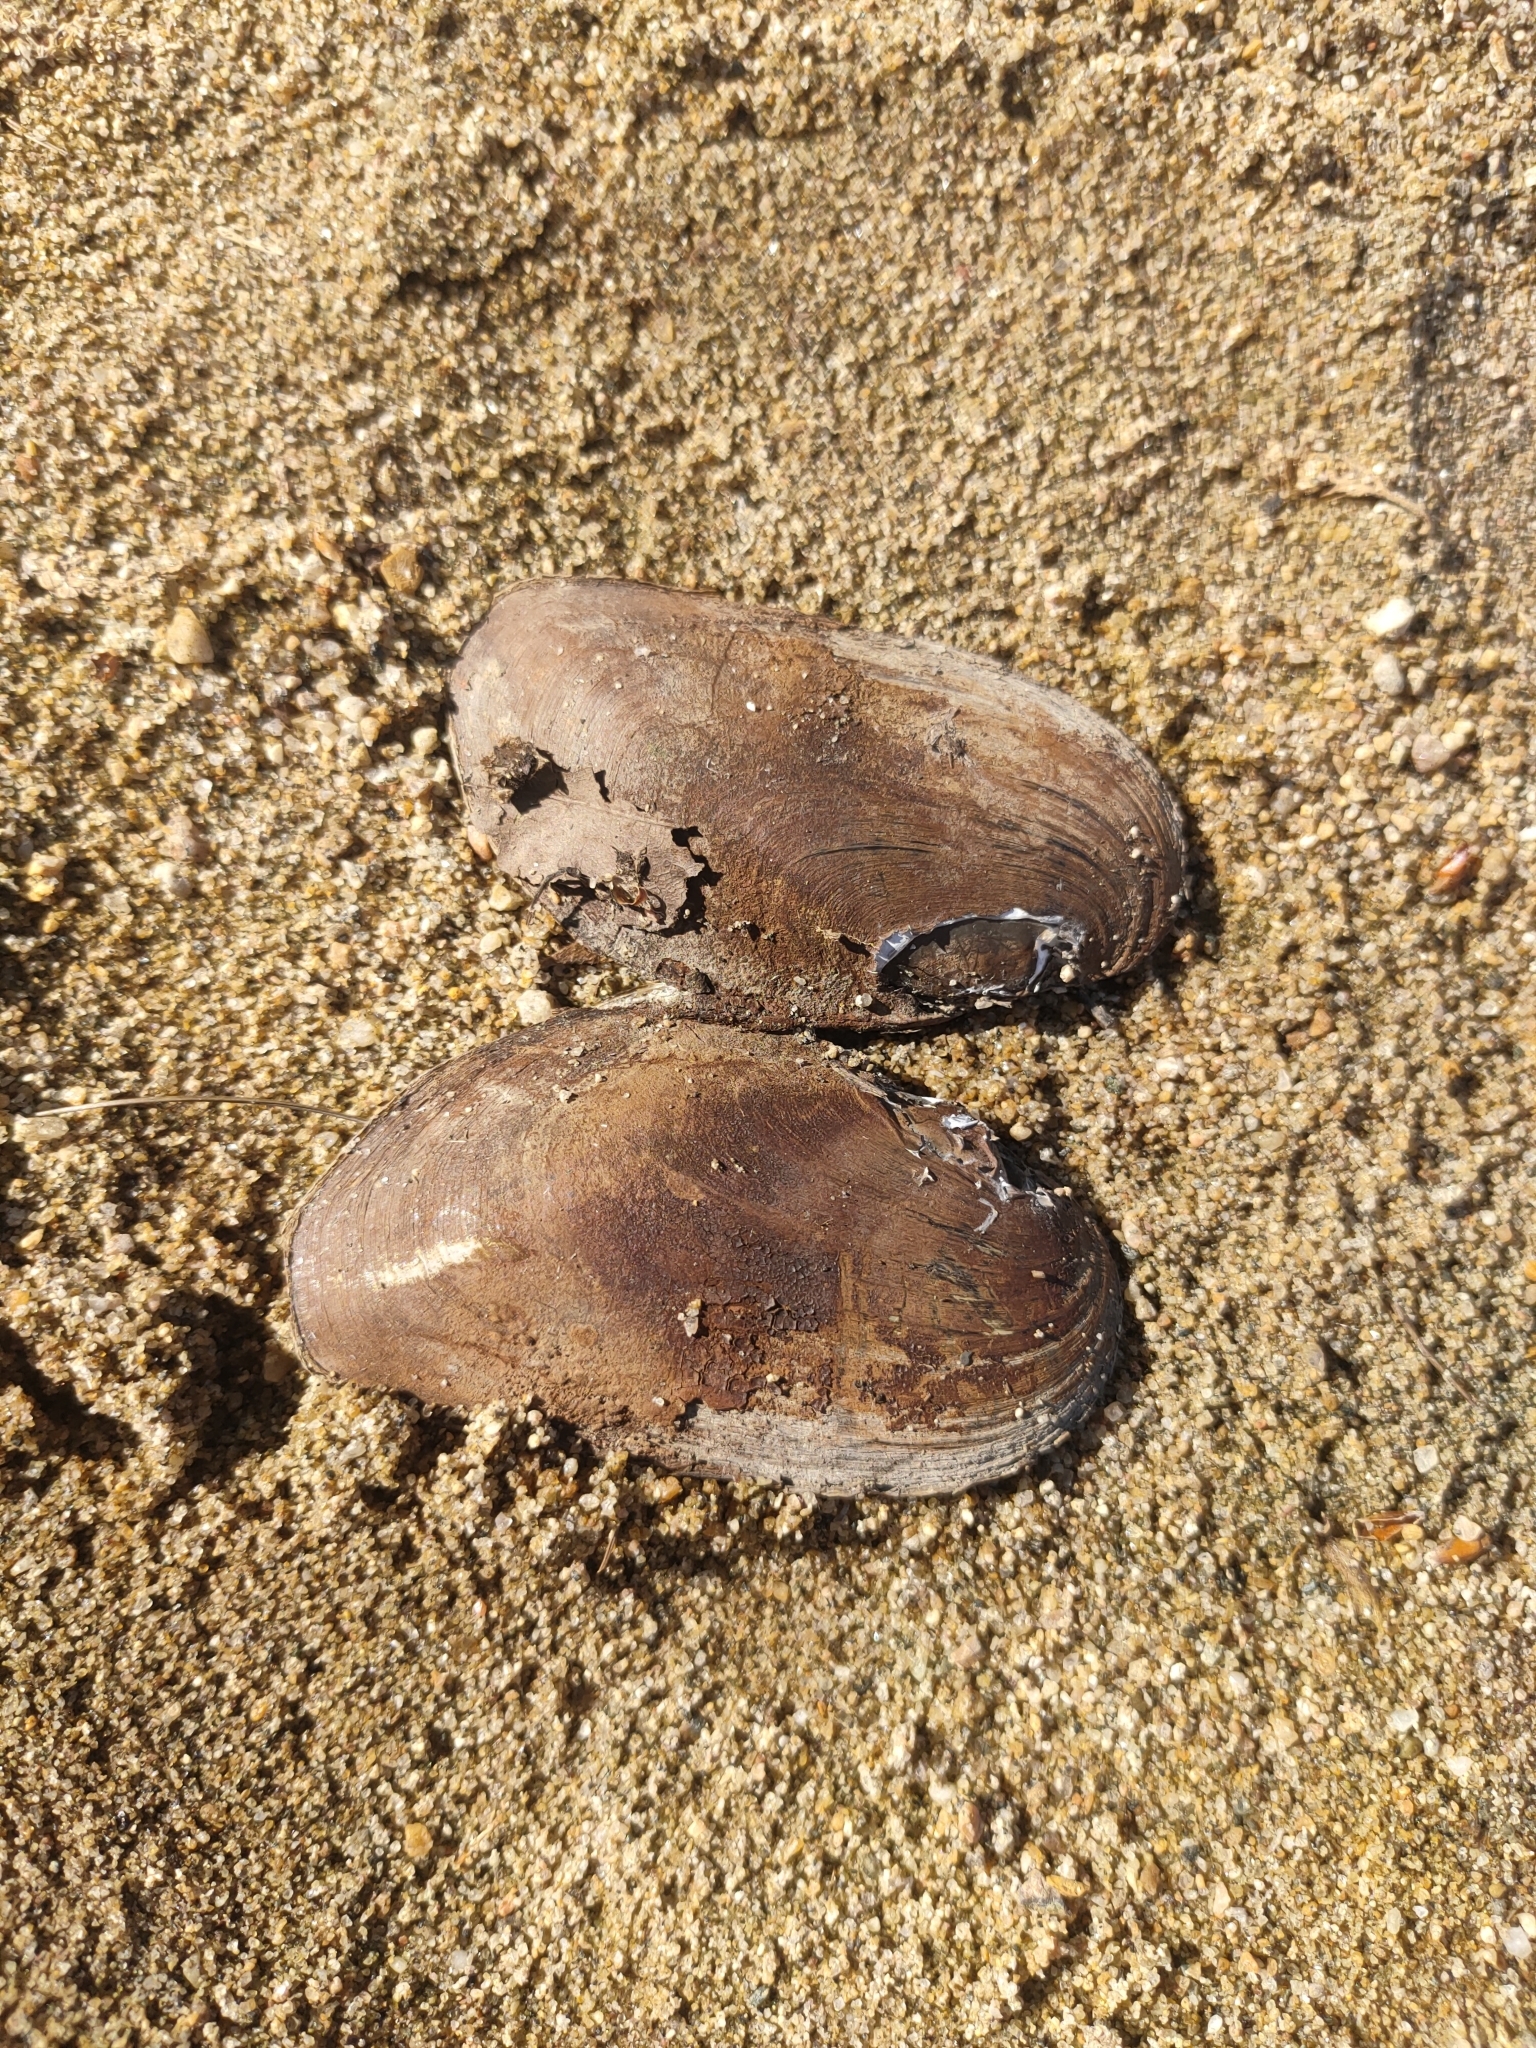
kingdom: Animalia
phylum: Mollusca
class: Bivalvia
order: Unionida
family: Unionidae
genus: Elliptio
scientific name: Elliptio complanata
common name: Eastern elliptio
